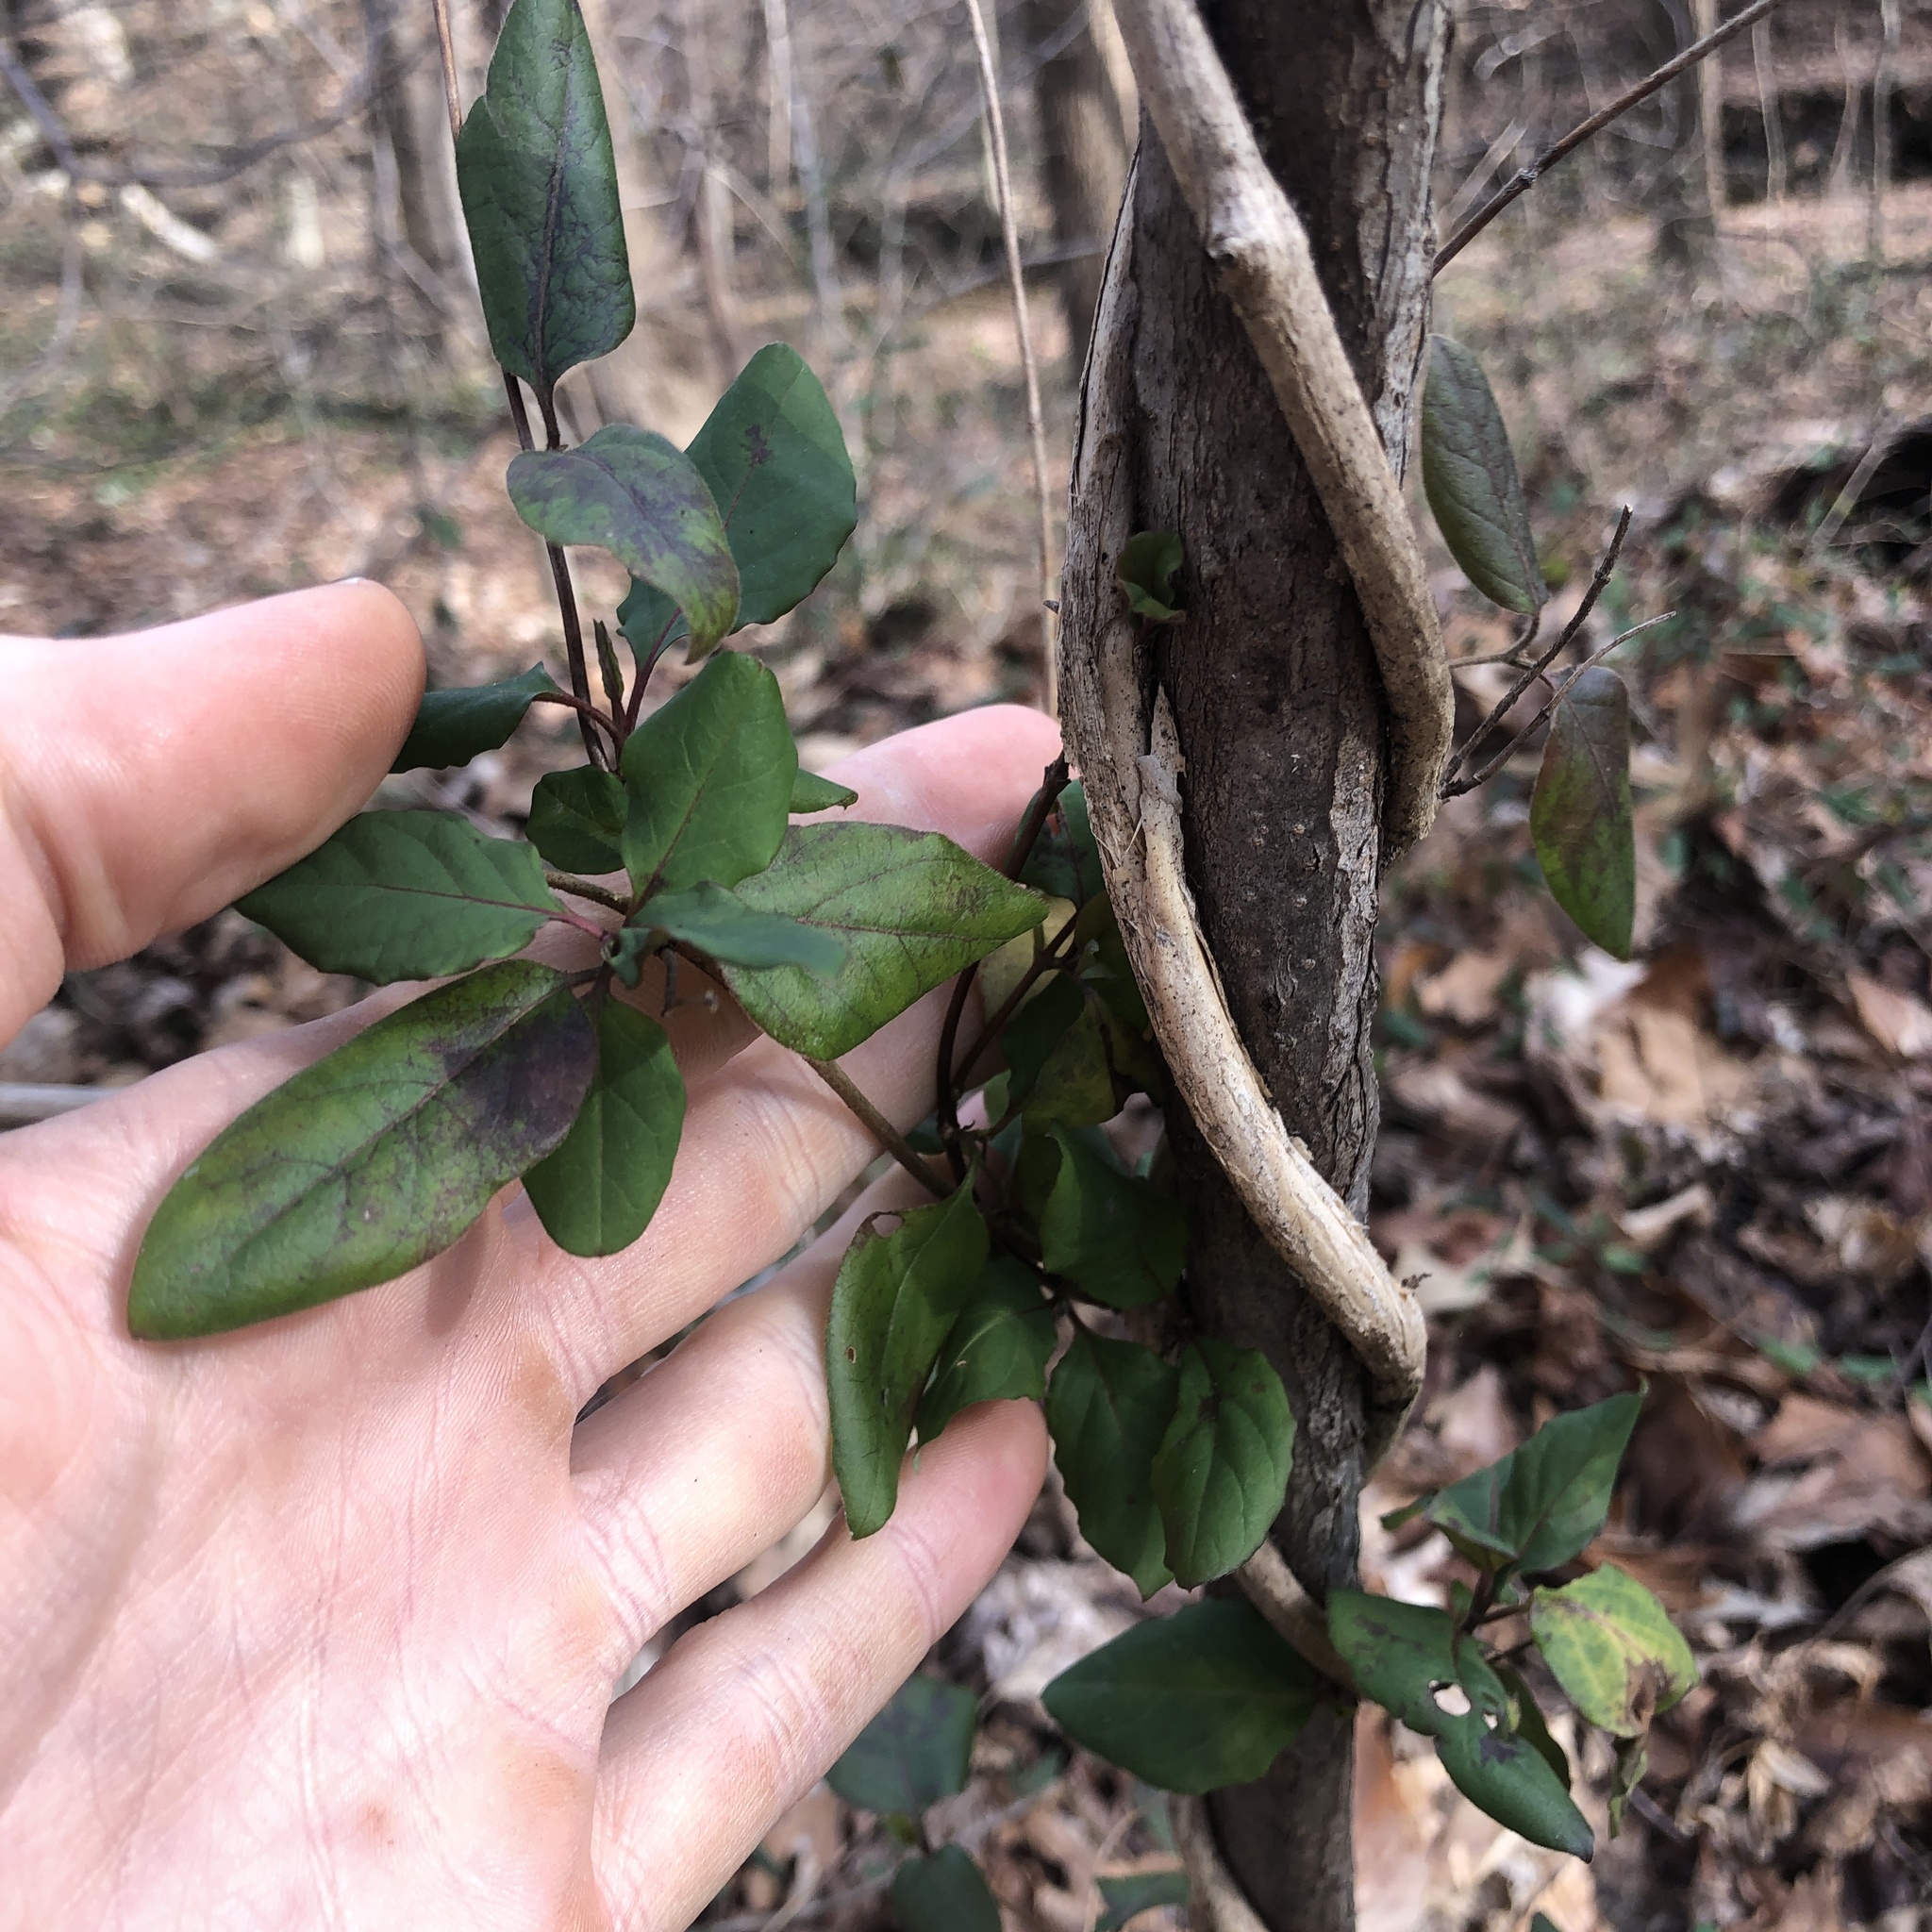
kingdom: Plantae
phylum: Tracheophyta
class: Magnoliopsida
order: Dipsacales
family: Caprifoliaceae
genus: Lonicera
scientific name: Lonicera japonica
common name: Japanese honeysuckle
